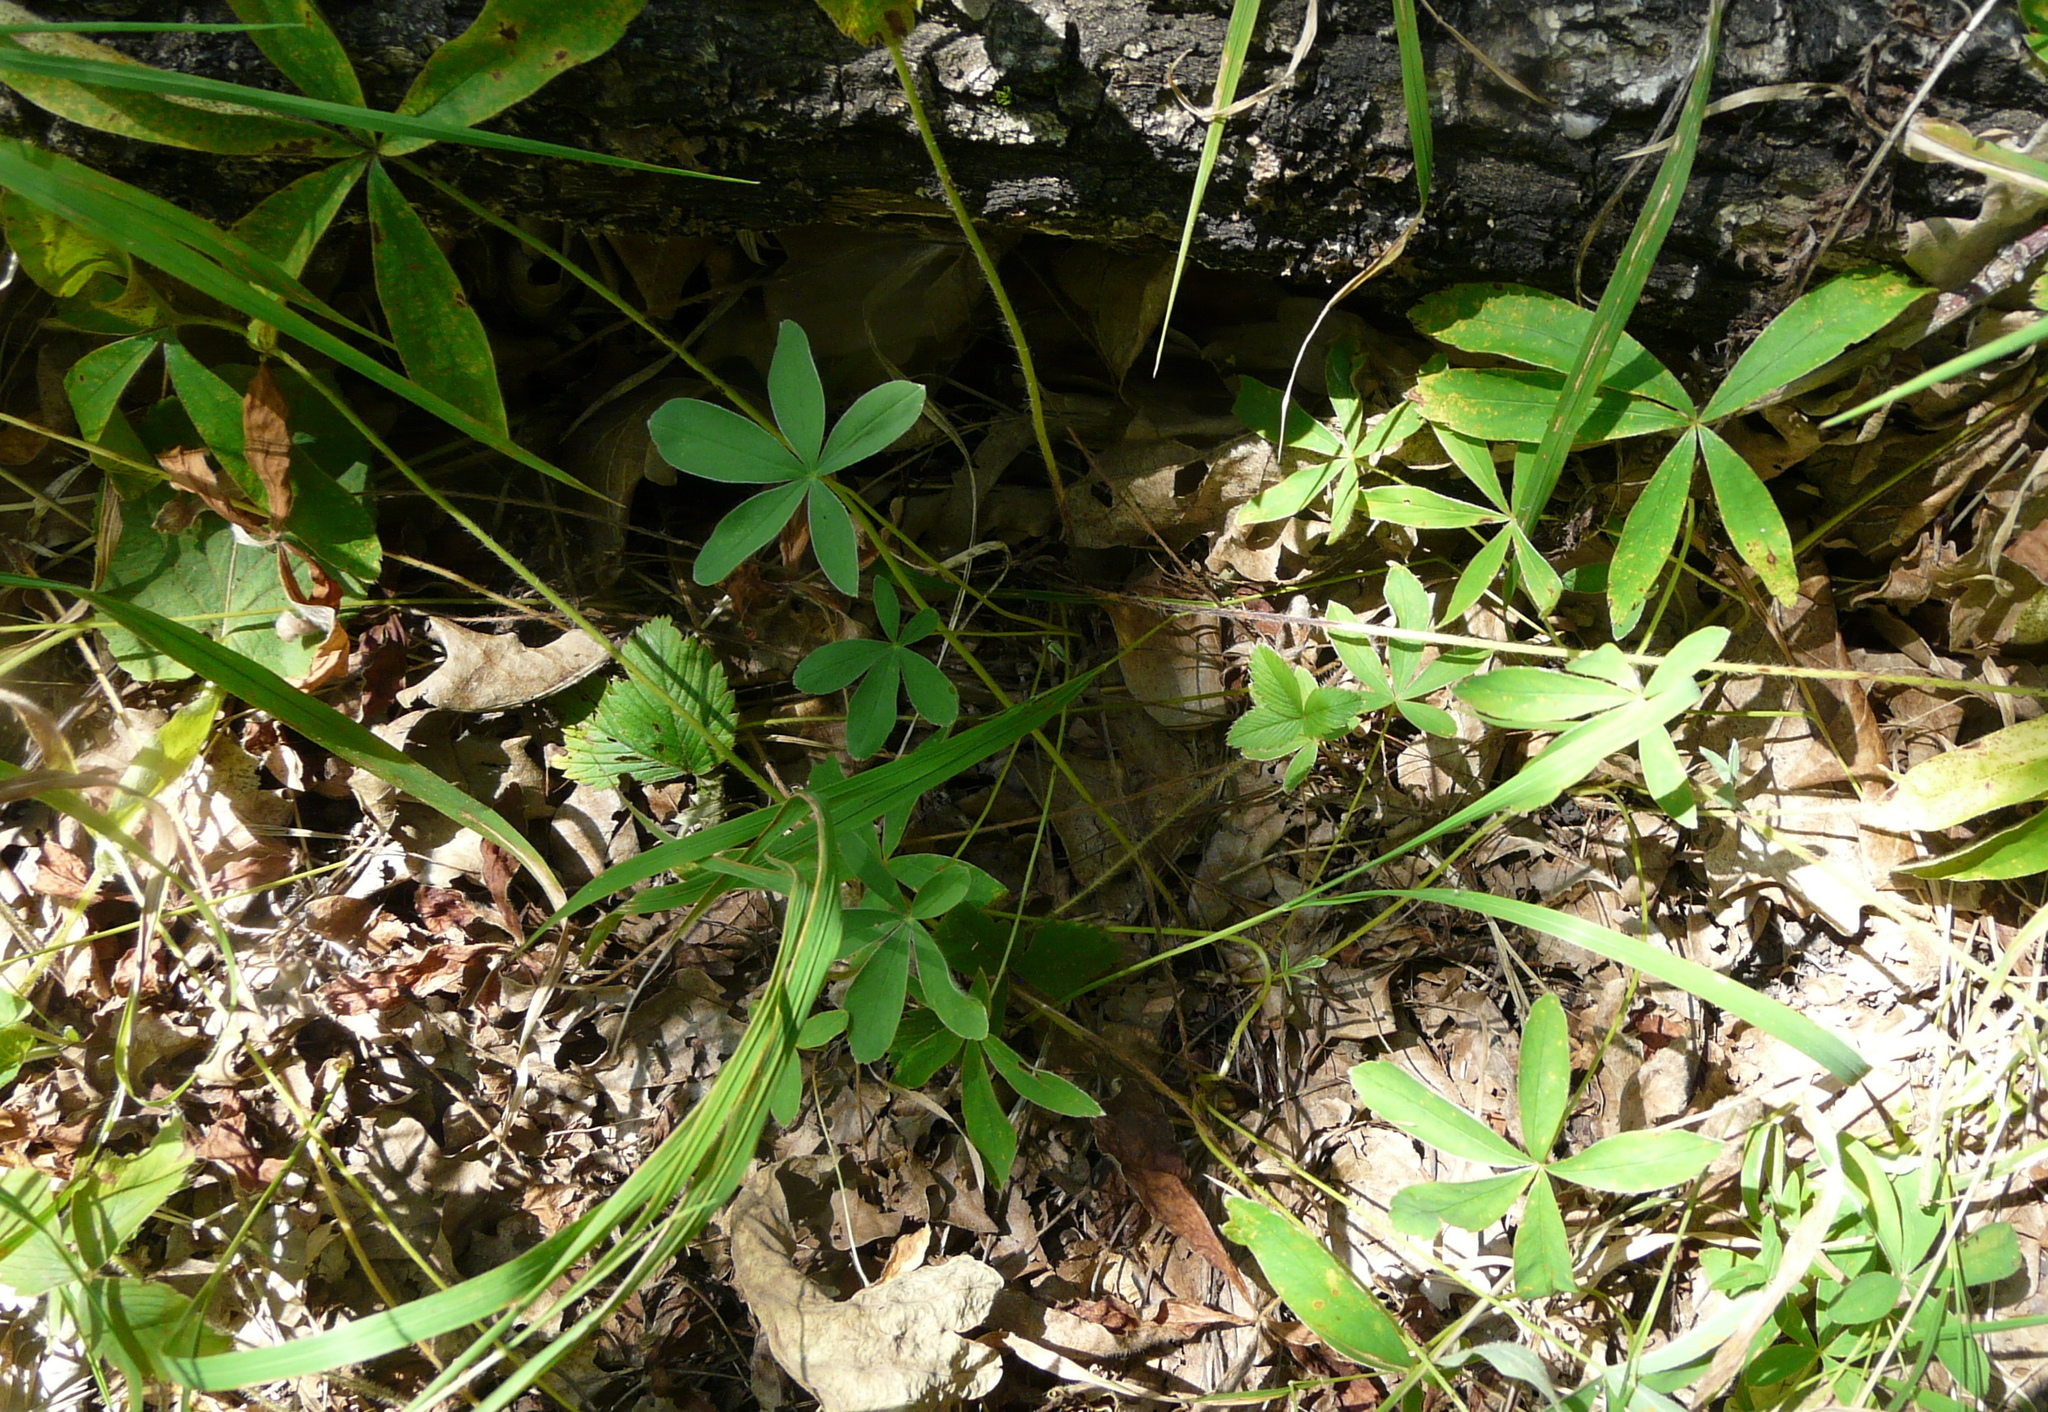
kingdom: Plantae
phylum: Tracheophyta
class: Magnoliopsida
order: Rosales
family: Rosaceae
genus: Potentilla
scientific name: Potentilla alba
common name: White cinquefoil
